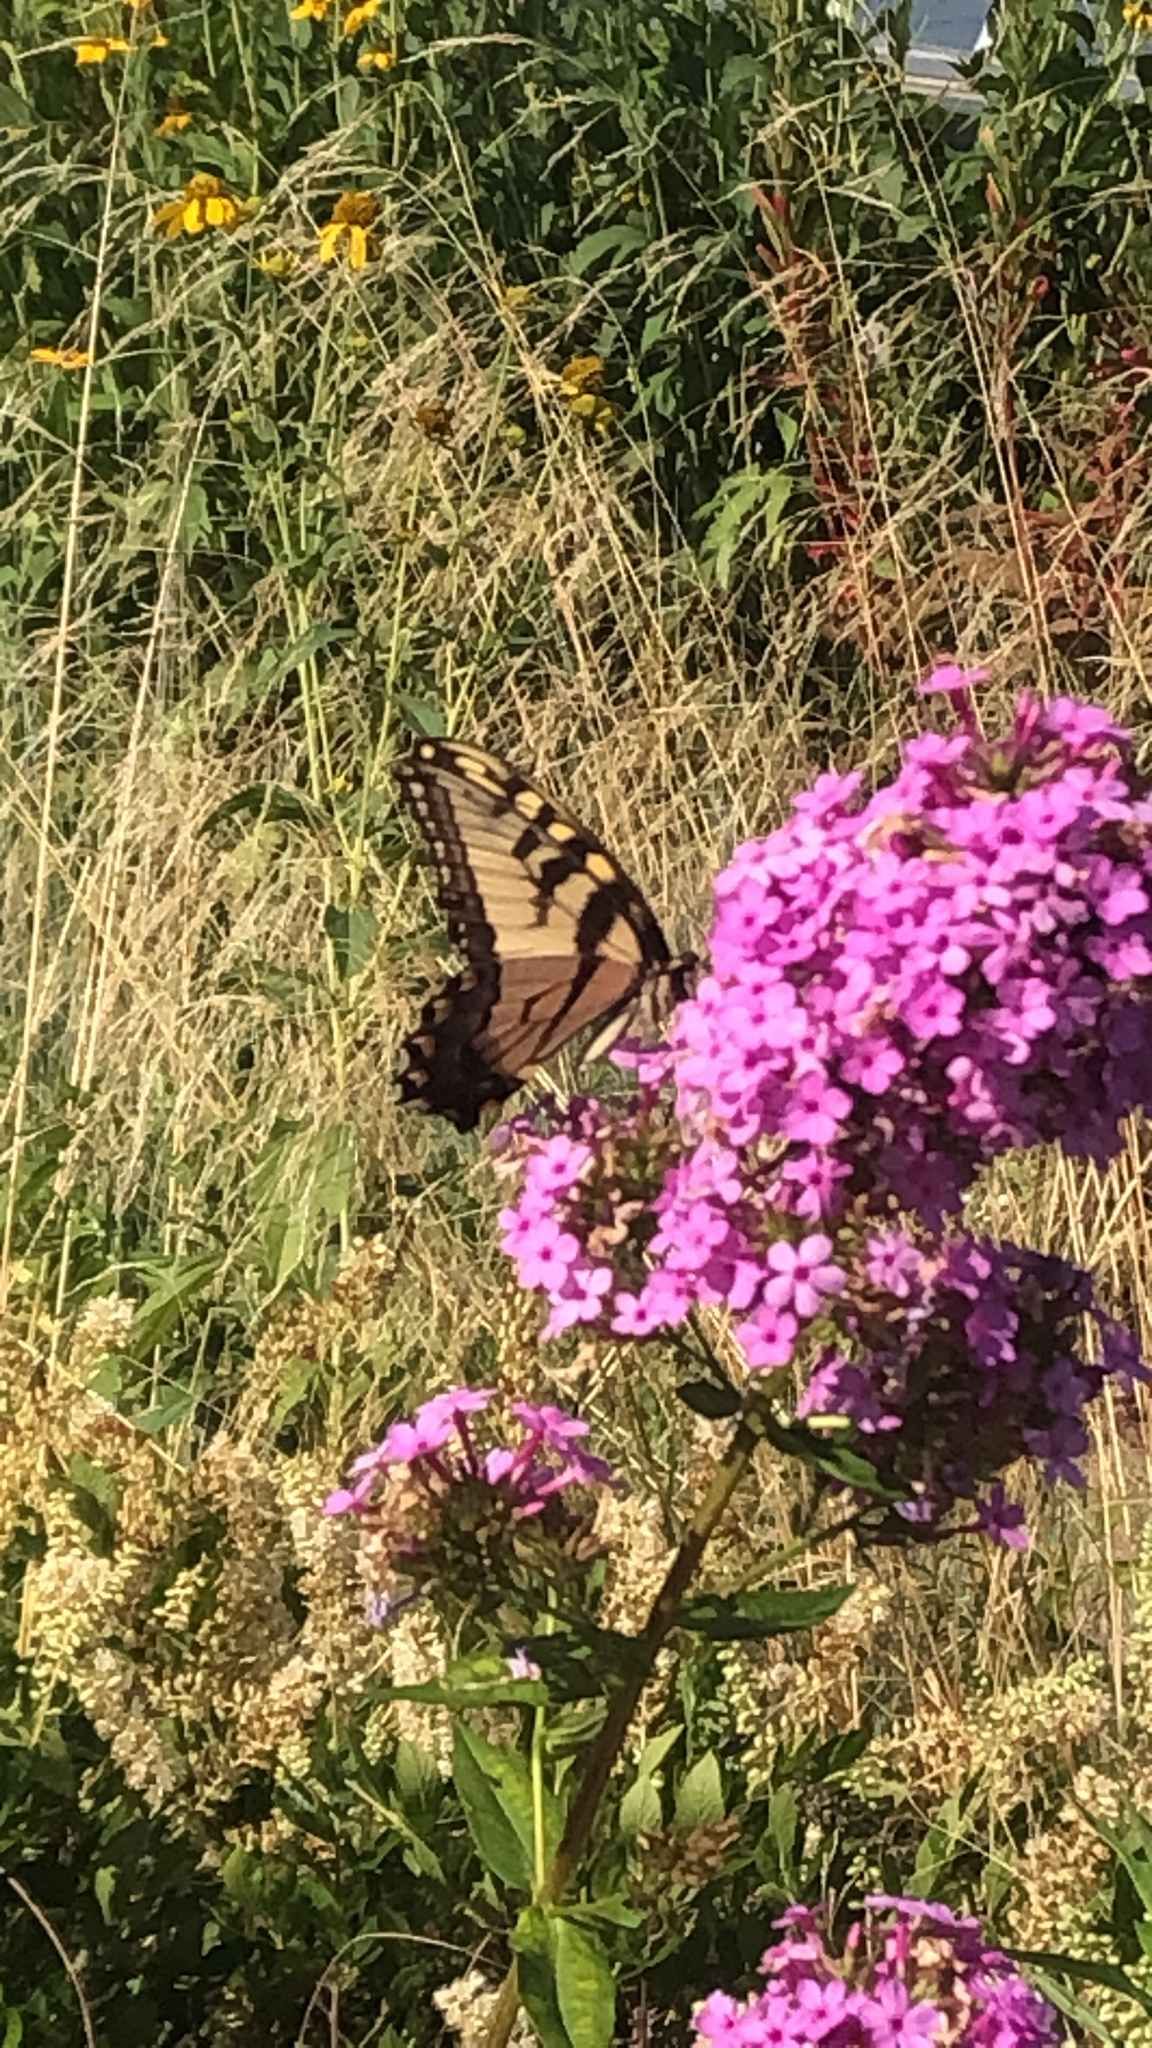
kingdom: Animalia
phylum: Arthropoda
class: Insecta
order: Lepidoptera
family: Papilionidae
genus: Papilio
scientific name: Papilio glaucus
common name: Tiger swallowtail
